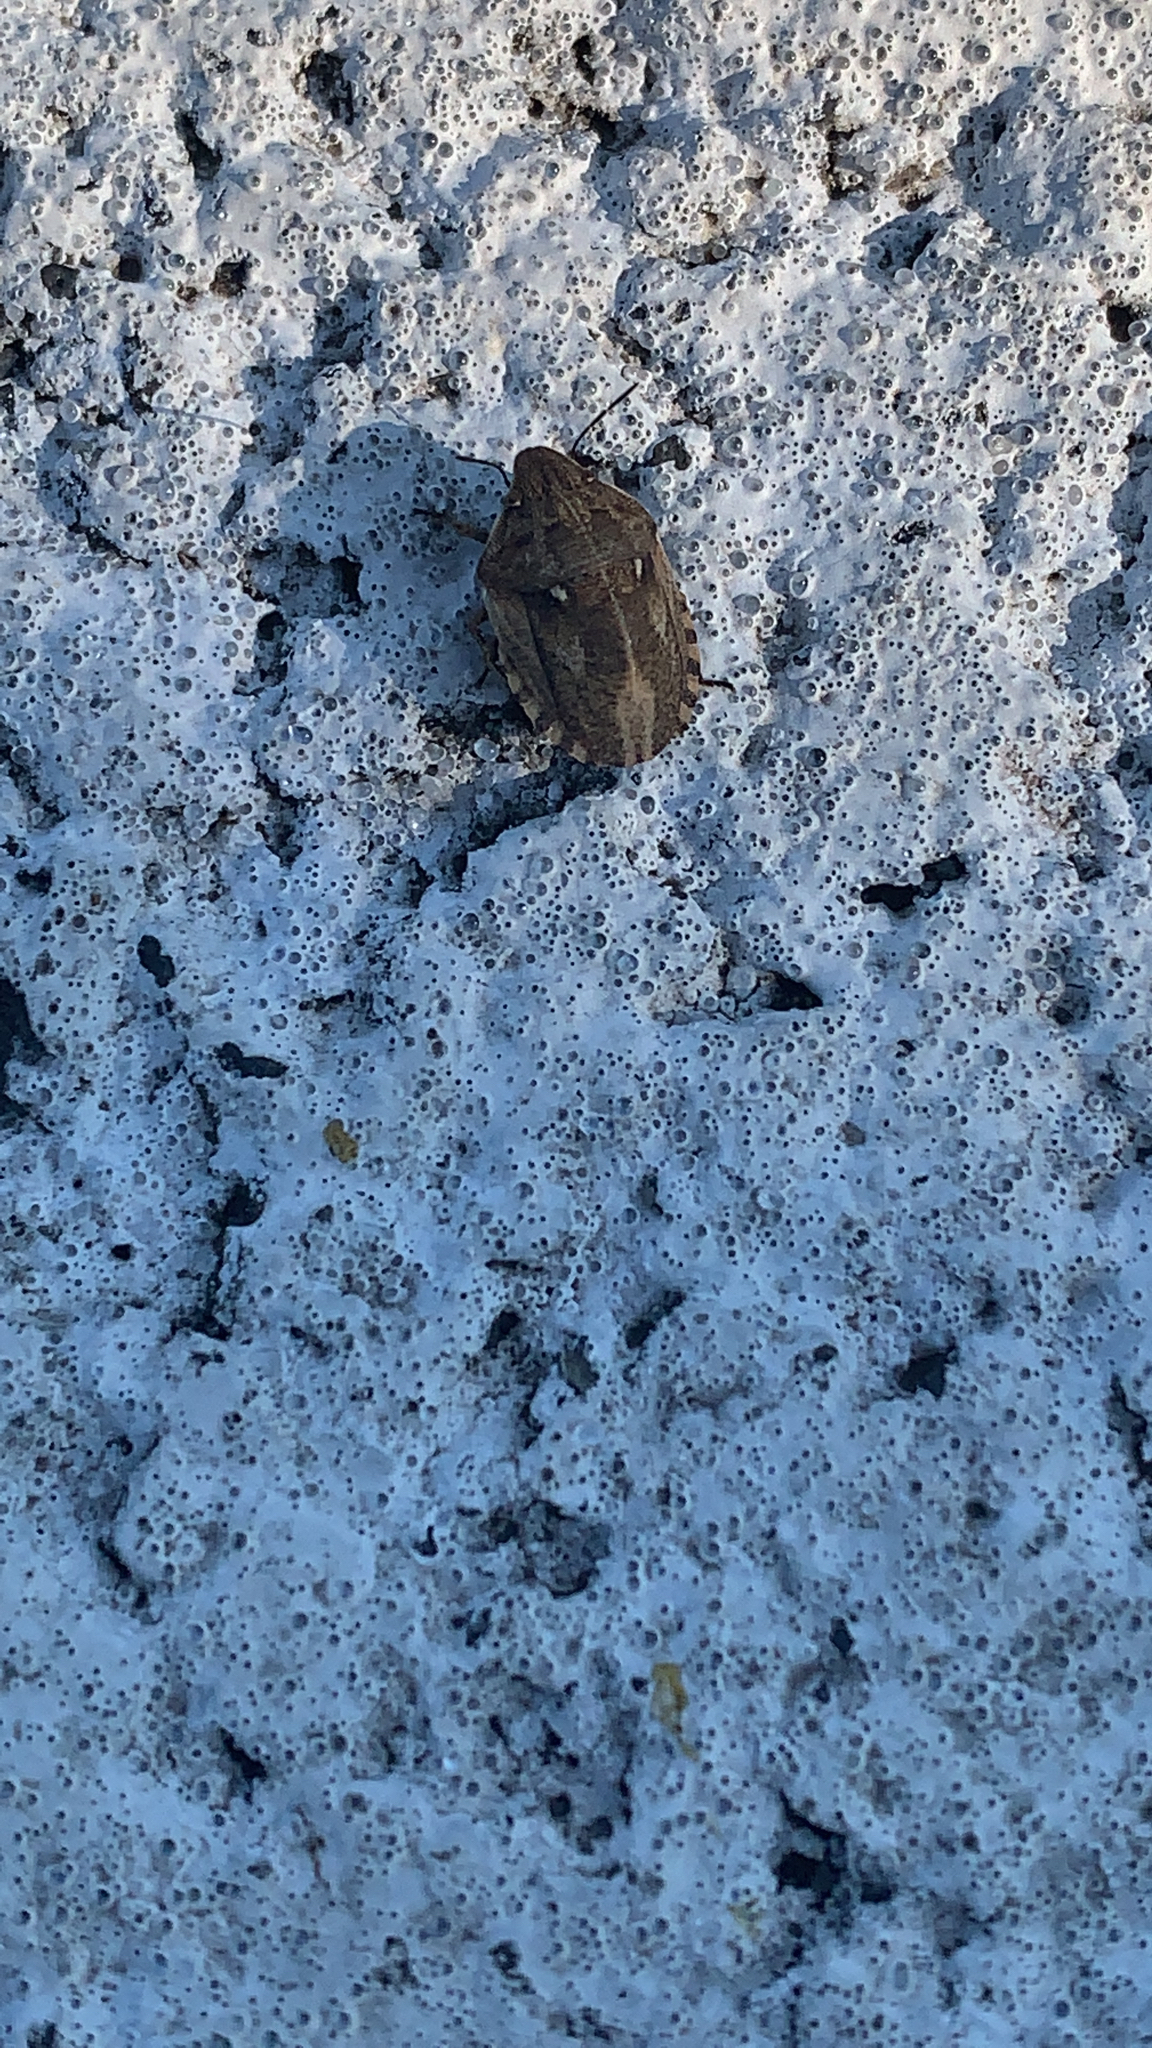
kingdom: Animalia
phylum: Arthropoda
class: Insecta
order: Hemiptera
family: Scutelleridae
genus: Eurygaster
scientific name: Eurygaster maura
